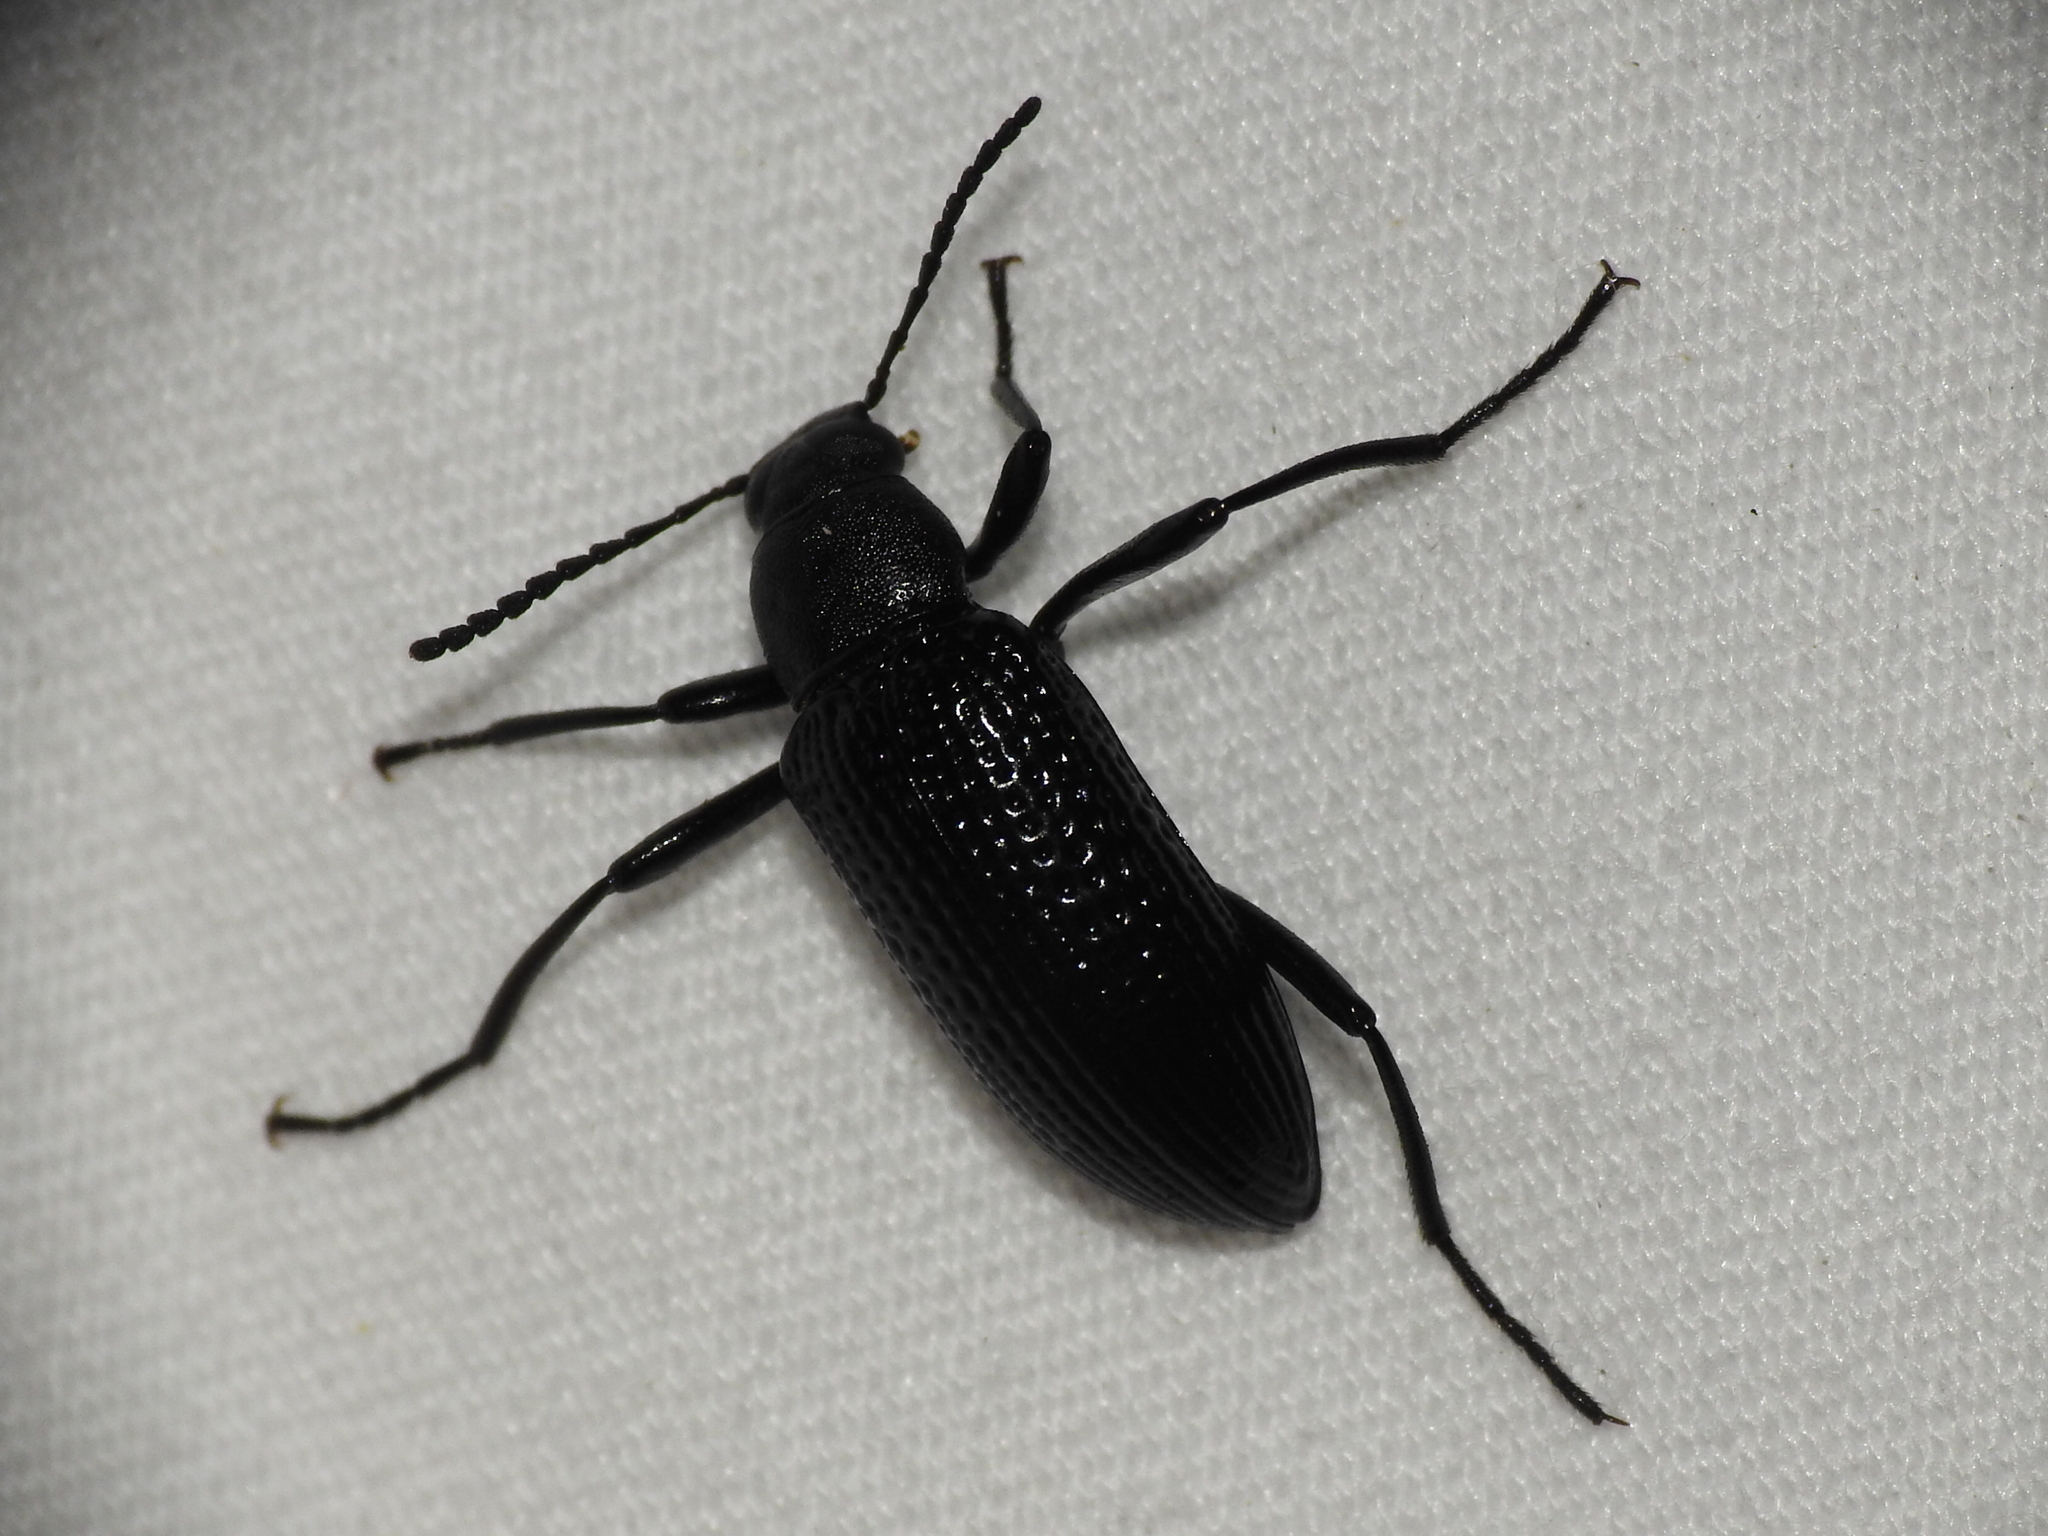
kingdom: Animalia
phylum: Arthropoda
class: Insecta
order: Coleoptera
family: Tenebrionidae
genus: Strongylium
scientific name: Strongylium hemistriatum
